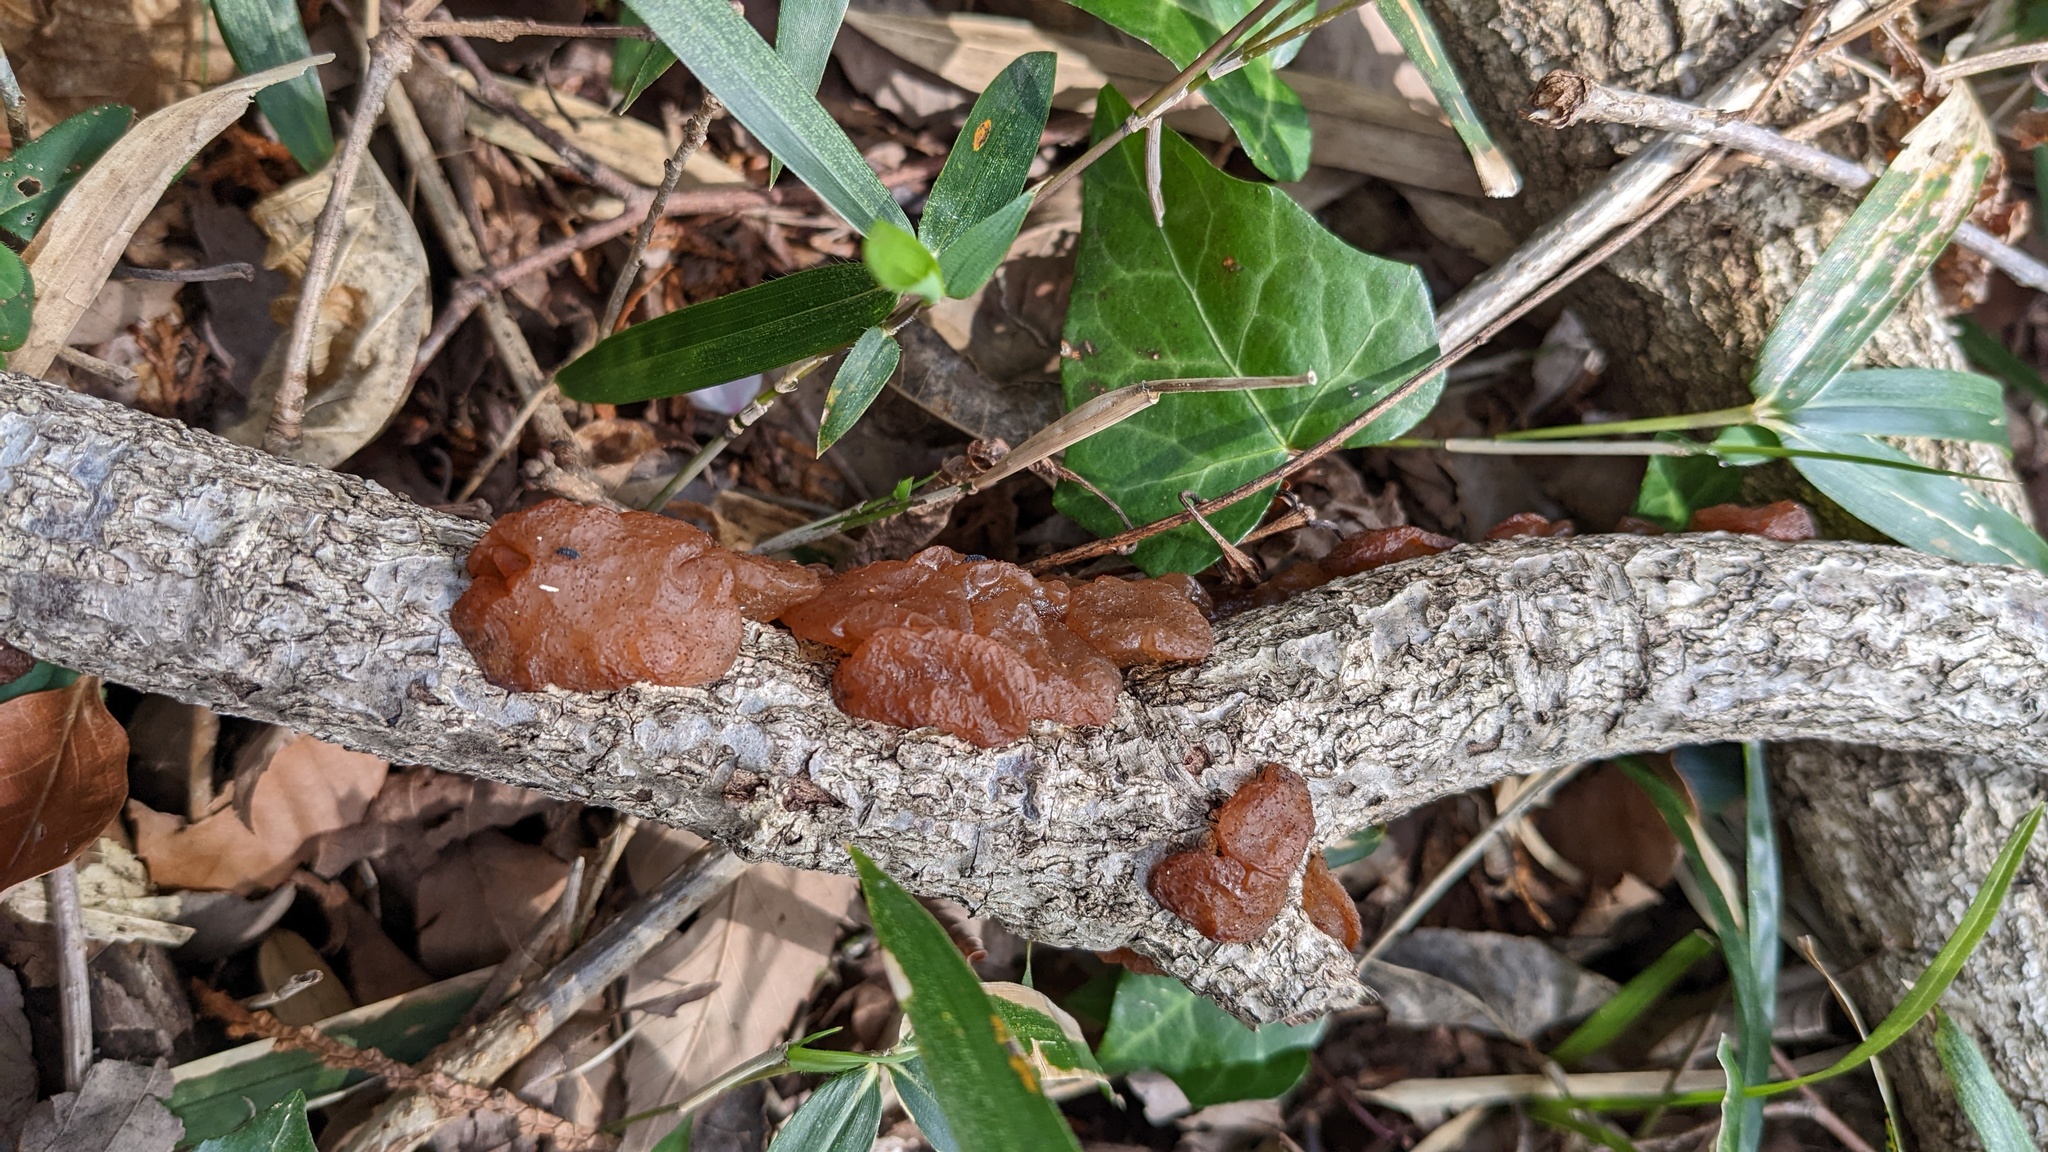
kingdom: Fungi
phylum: Basidiomycota
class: Agaricomycetes
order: Auriculariales
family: Auriculariaceae
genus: Exidia
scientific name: Exidia uvapassa
